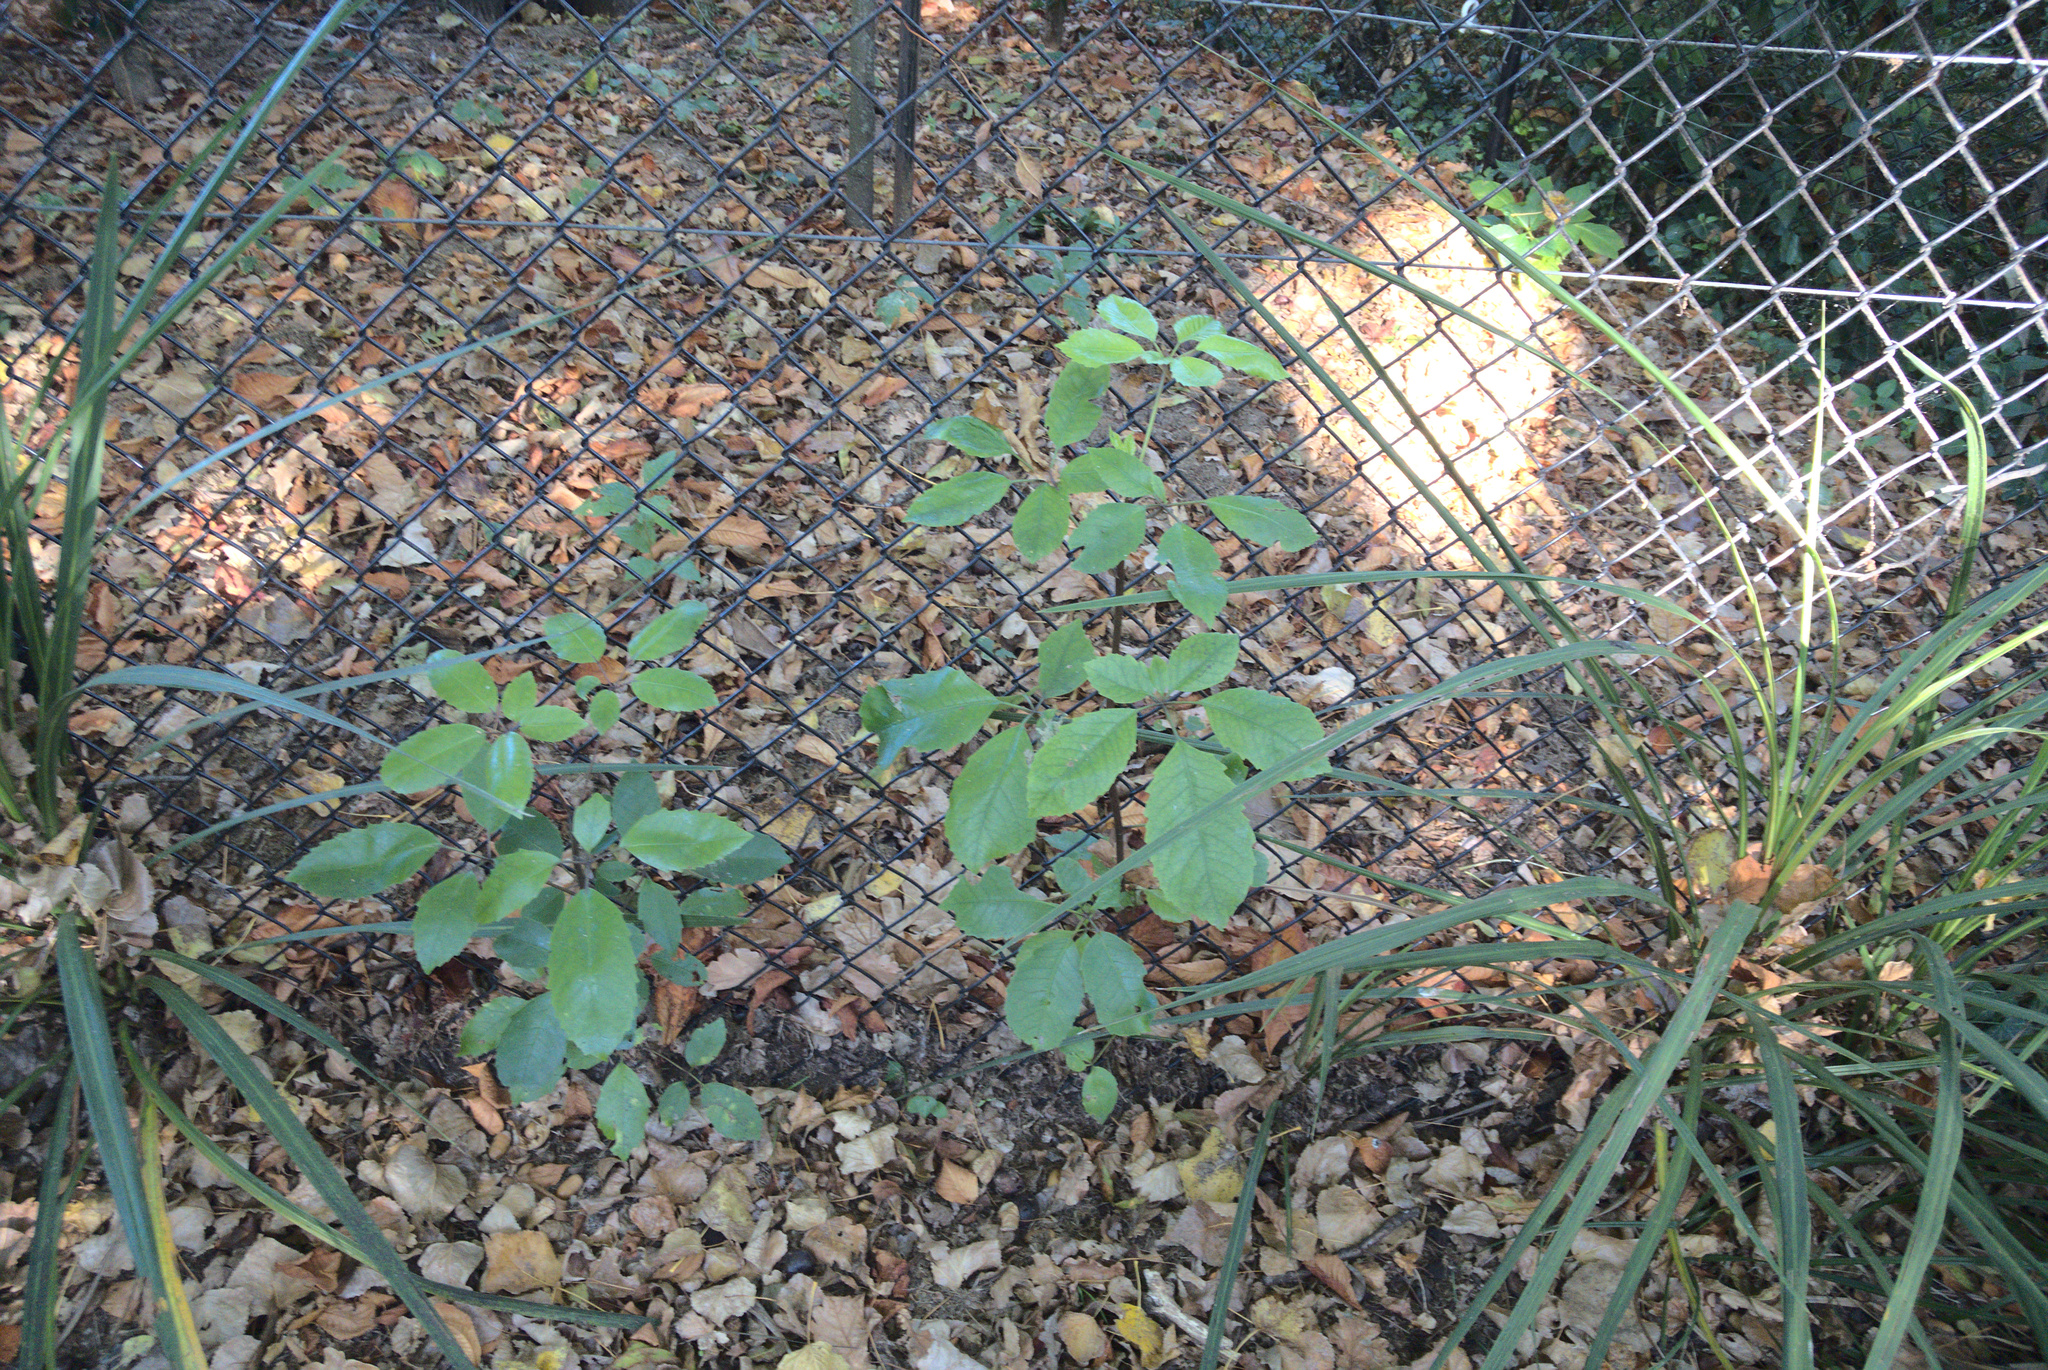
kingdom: Plantae
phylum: Tracheophyta
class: Magnoliopsida
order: Apiales
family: Araliaceae
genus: Neopanax
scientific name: Neopanax arboreus
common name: Five-fingers
